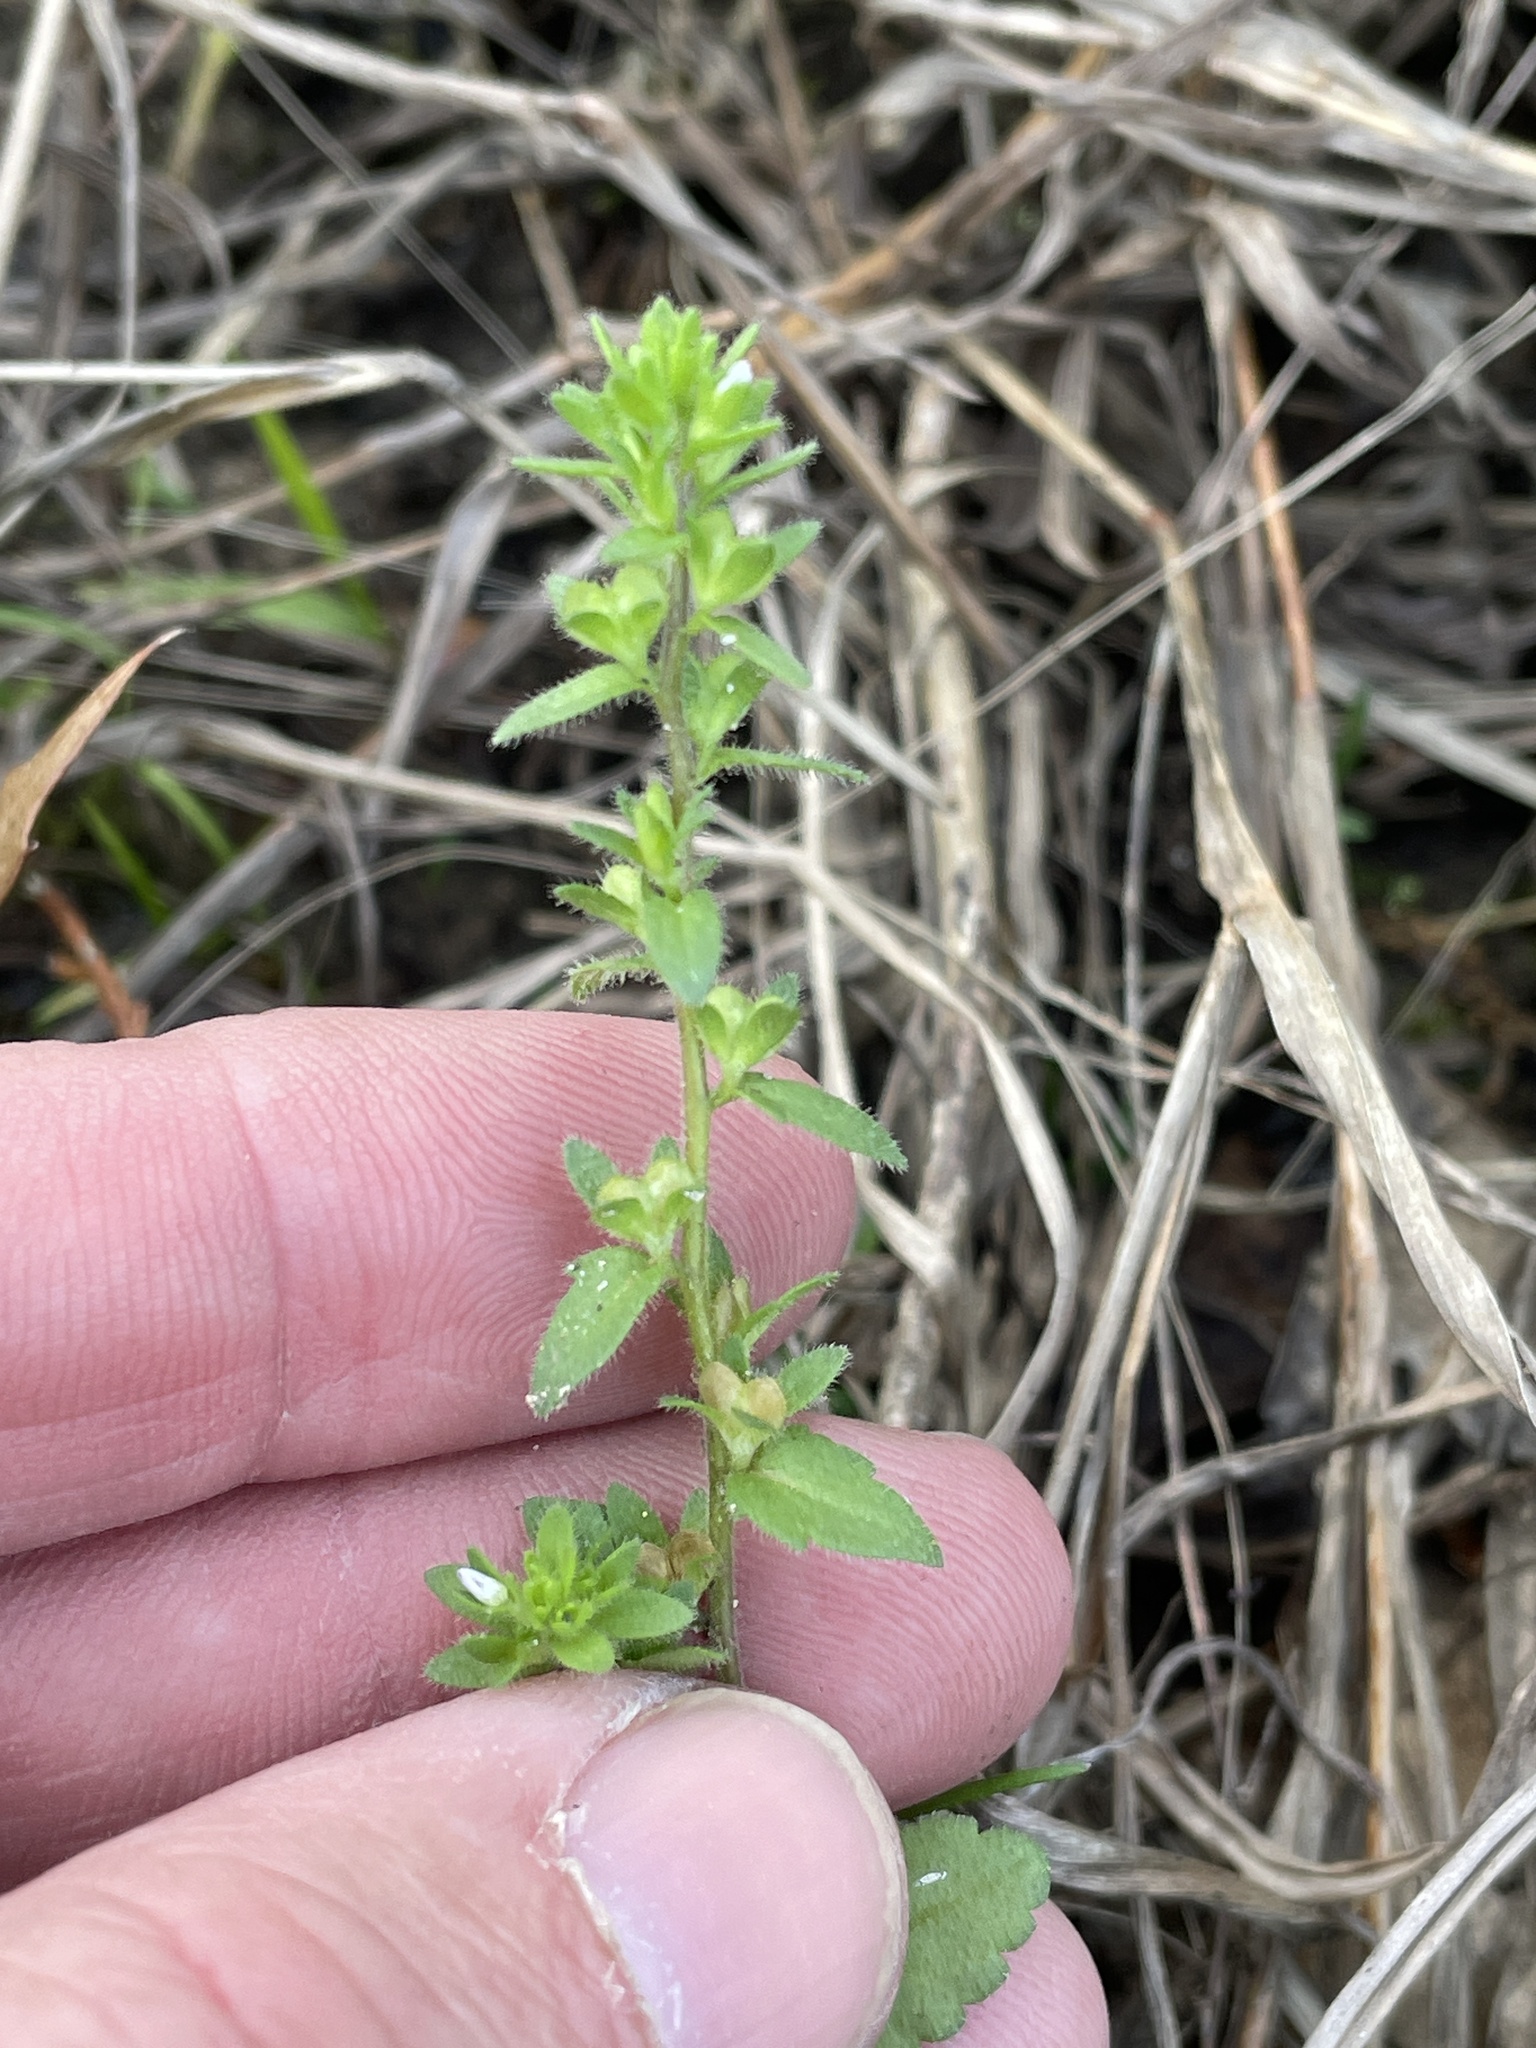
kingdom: Plantae
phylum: Tracheophyta
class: Magnoliopsida
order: Lamiales
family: Plantaginaceae
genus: Veronica
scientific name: Veronica arvensis
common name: Corn speedwell
